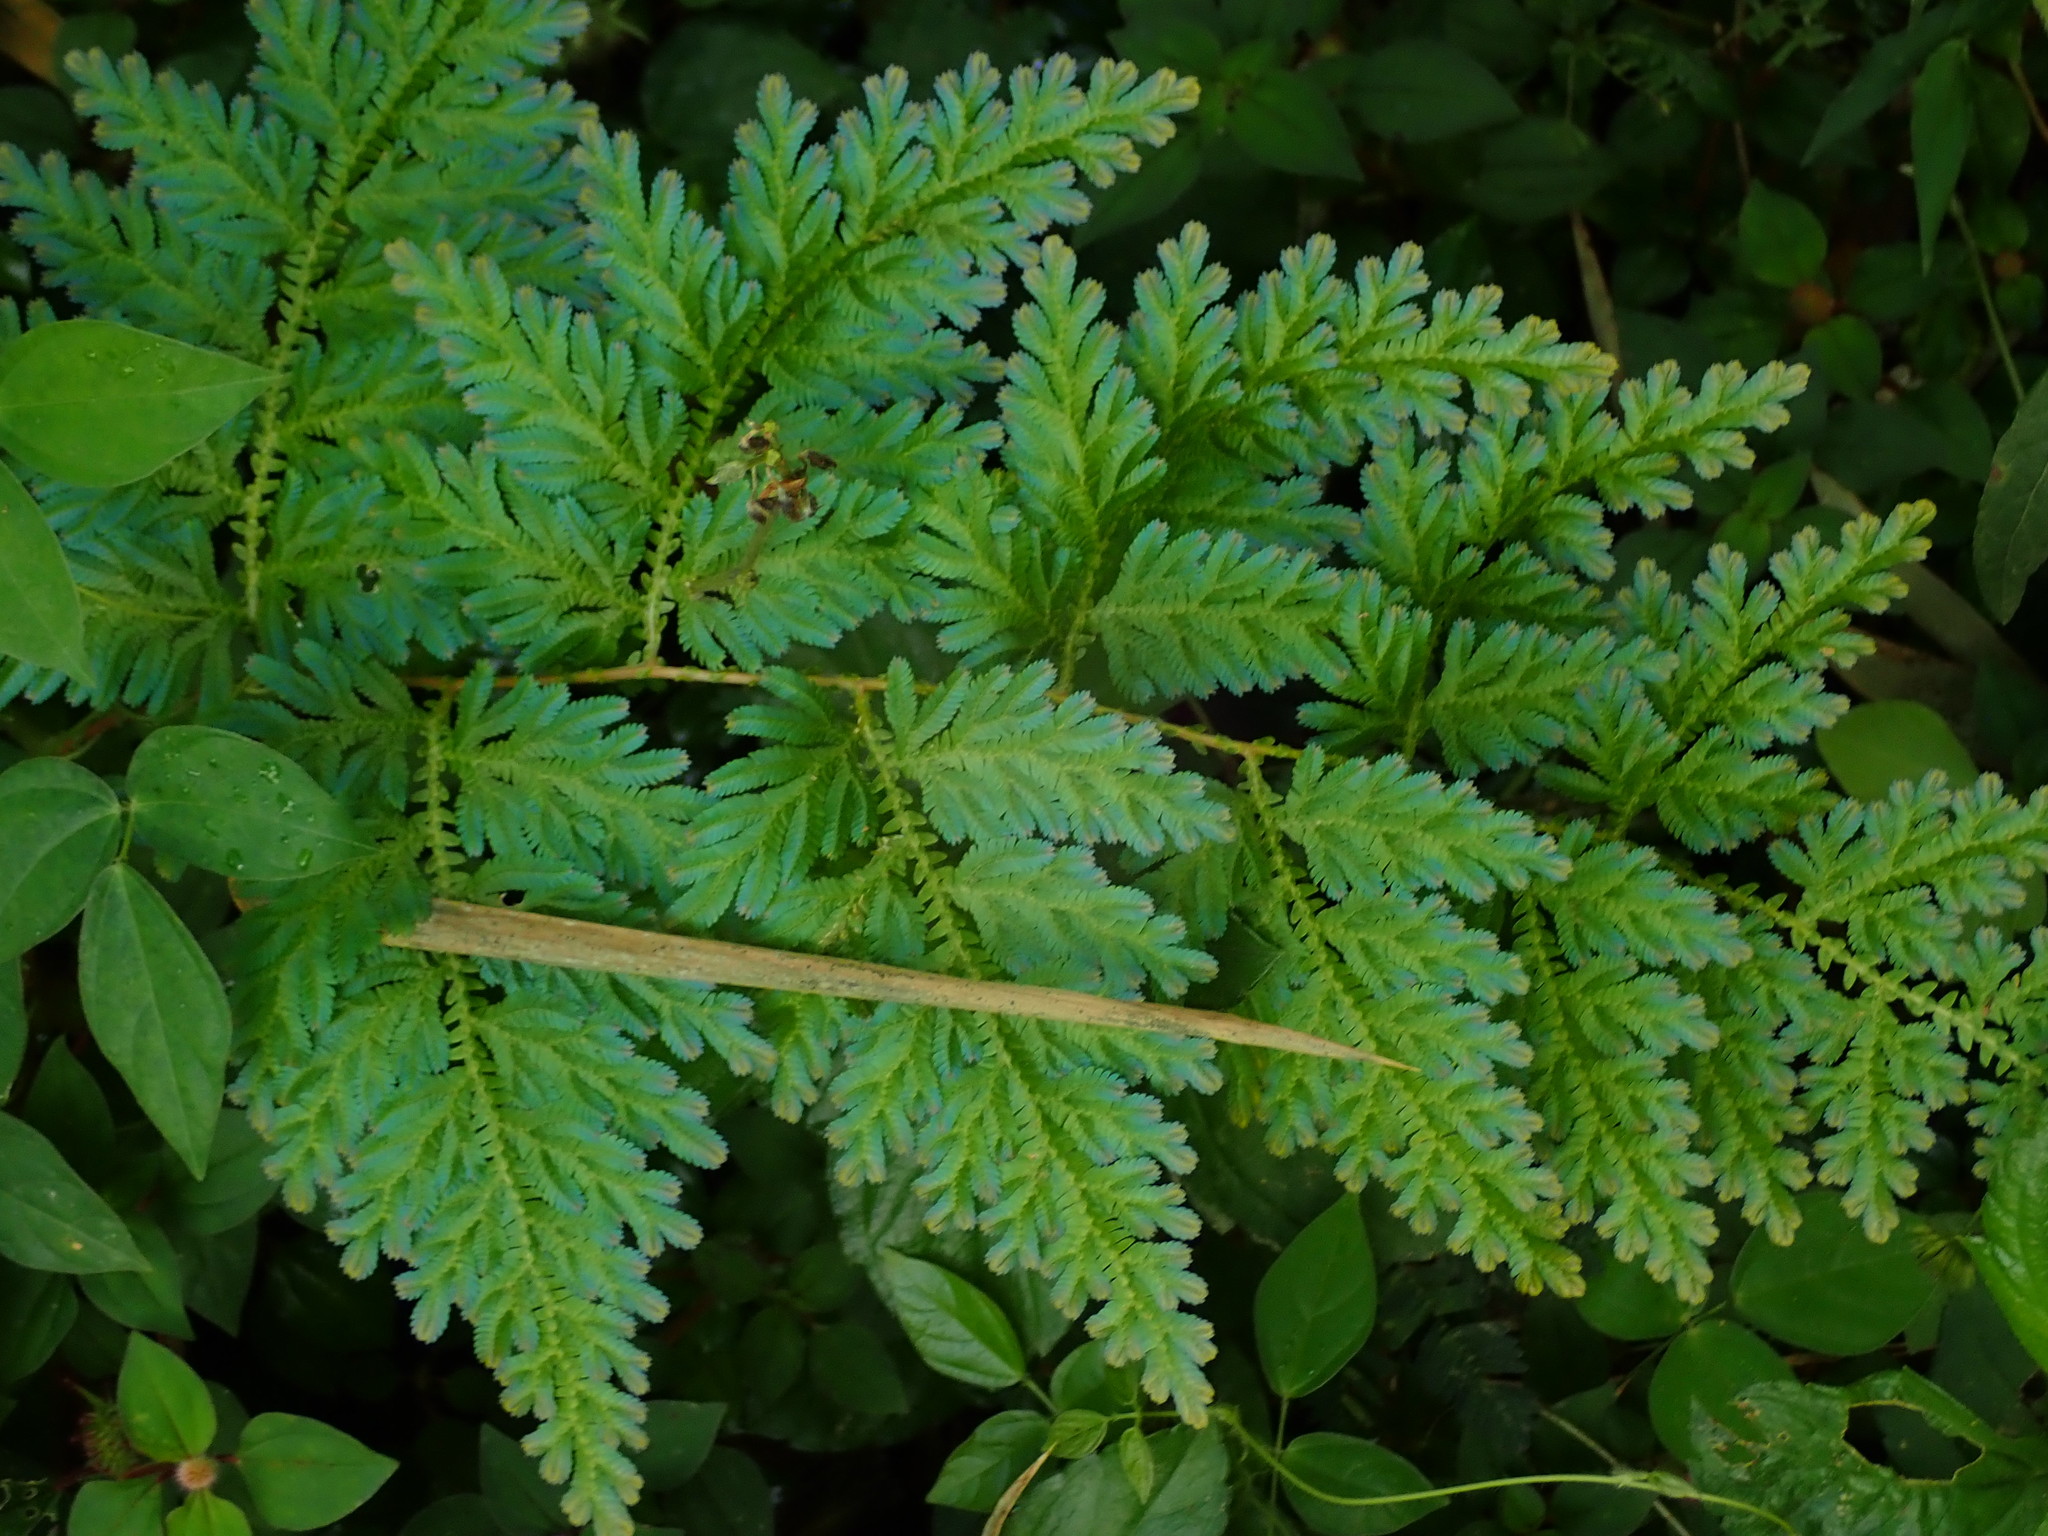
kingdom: Plantae
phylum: Tracheophyta
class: Lycopodiopsida
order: Selaginellales
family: Selaginellaceae
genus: Selaginella
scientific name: Selaginella willdenowii
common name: Willdenow's spikemoss
